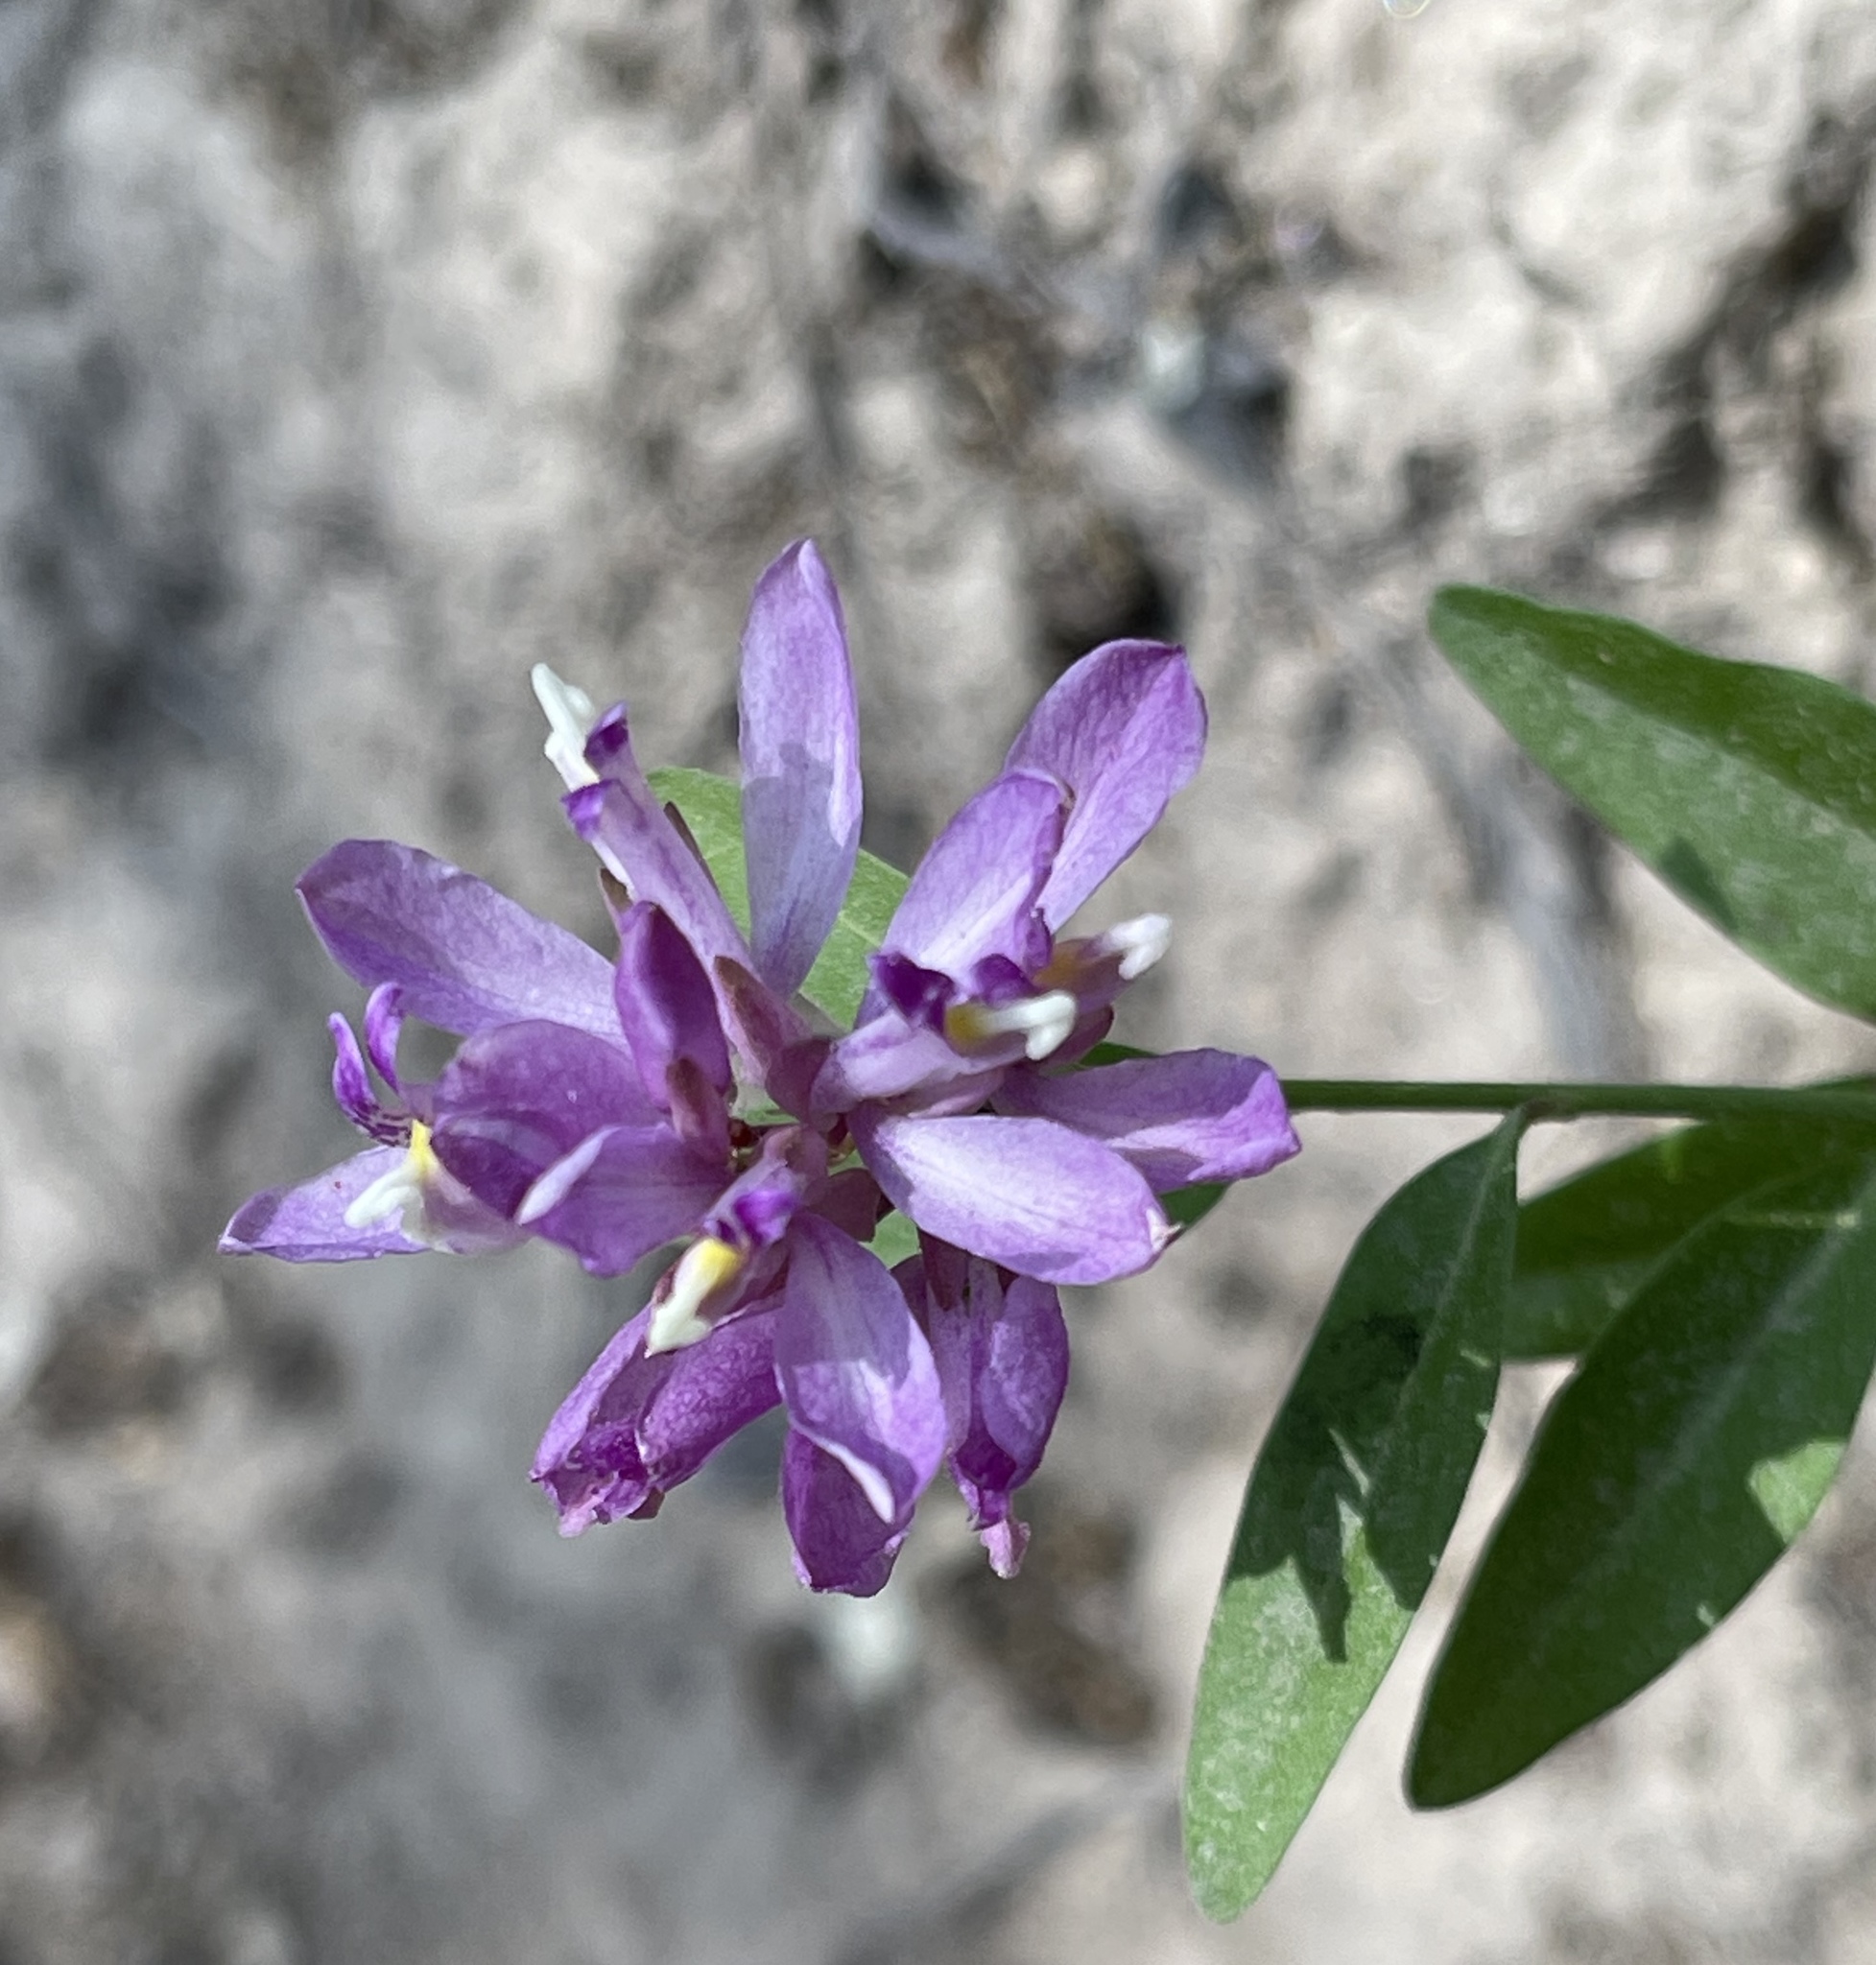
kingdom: Plantae
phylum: Tracheophyta
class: Magnoliopsida
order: Fabales
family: Polygalaceae
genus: Rhinotropis
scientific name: Rhinotropis californica
